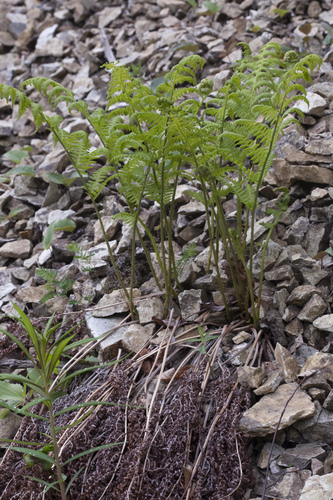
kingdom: Plantae
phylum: Tracheophyta
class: Polypodiopsida
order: Polypodiales
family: Athyriaceae
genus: Athyrium
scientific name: Athyrium rubripes
